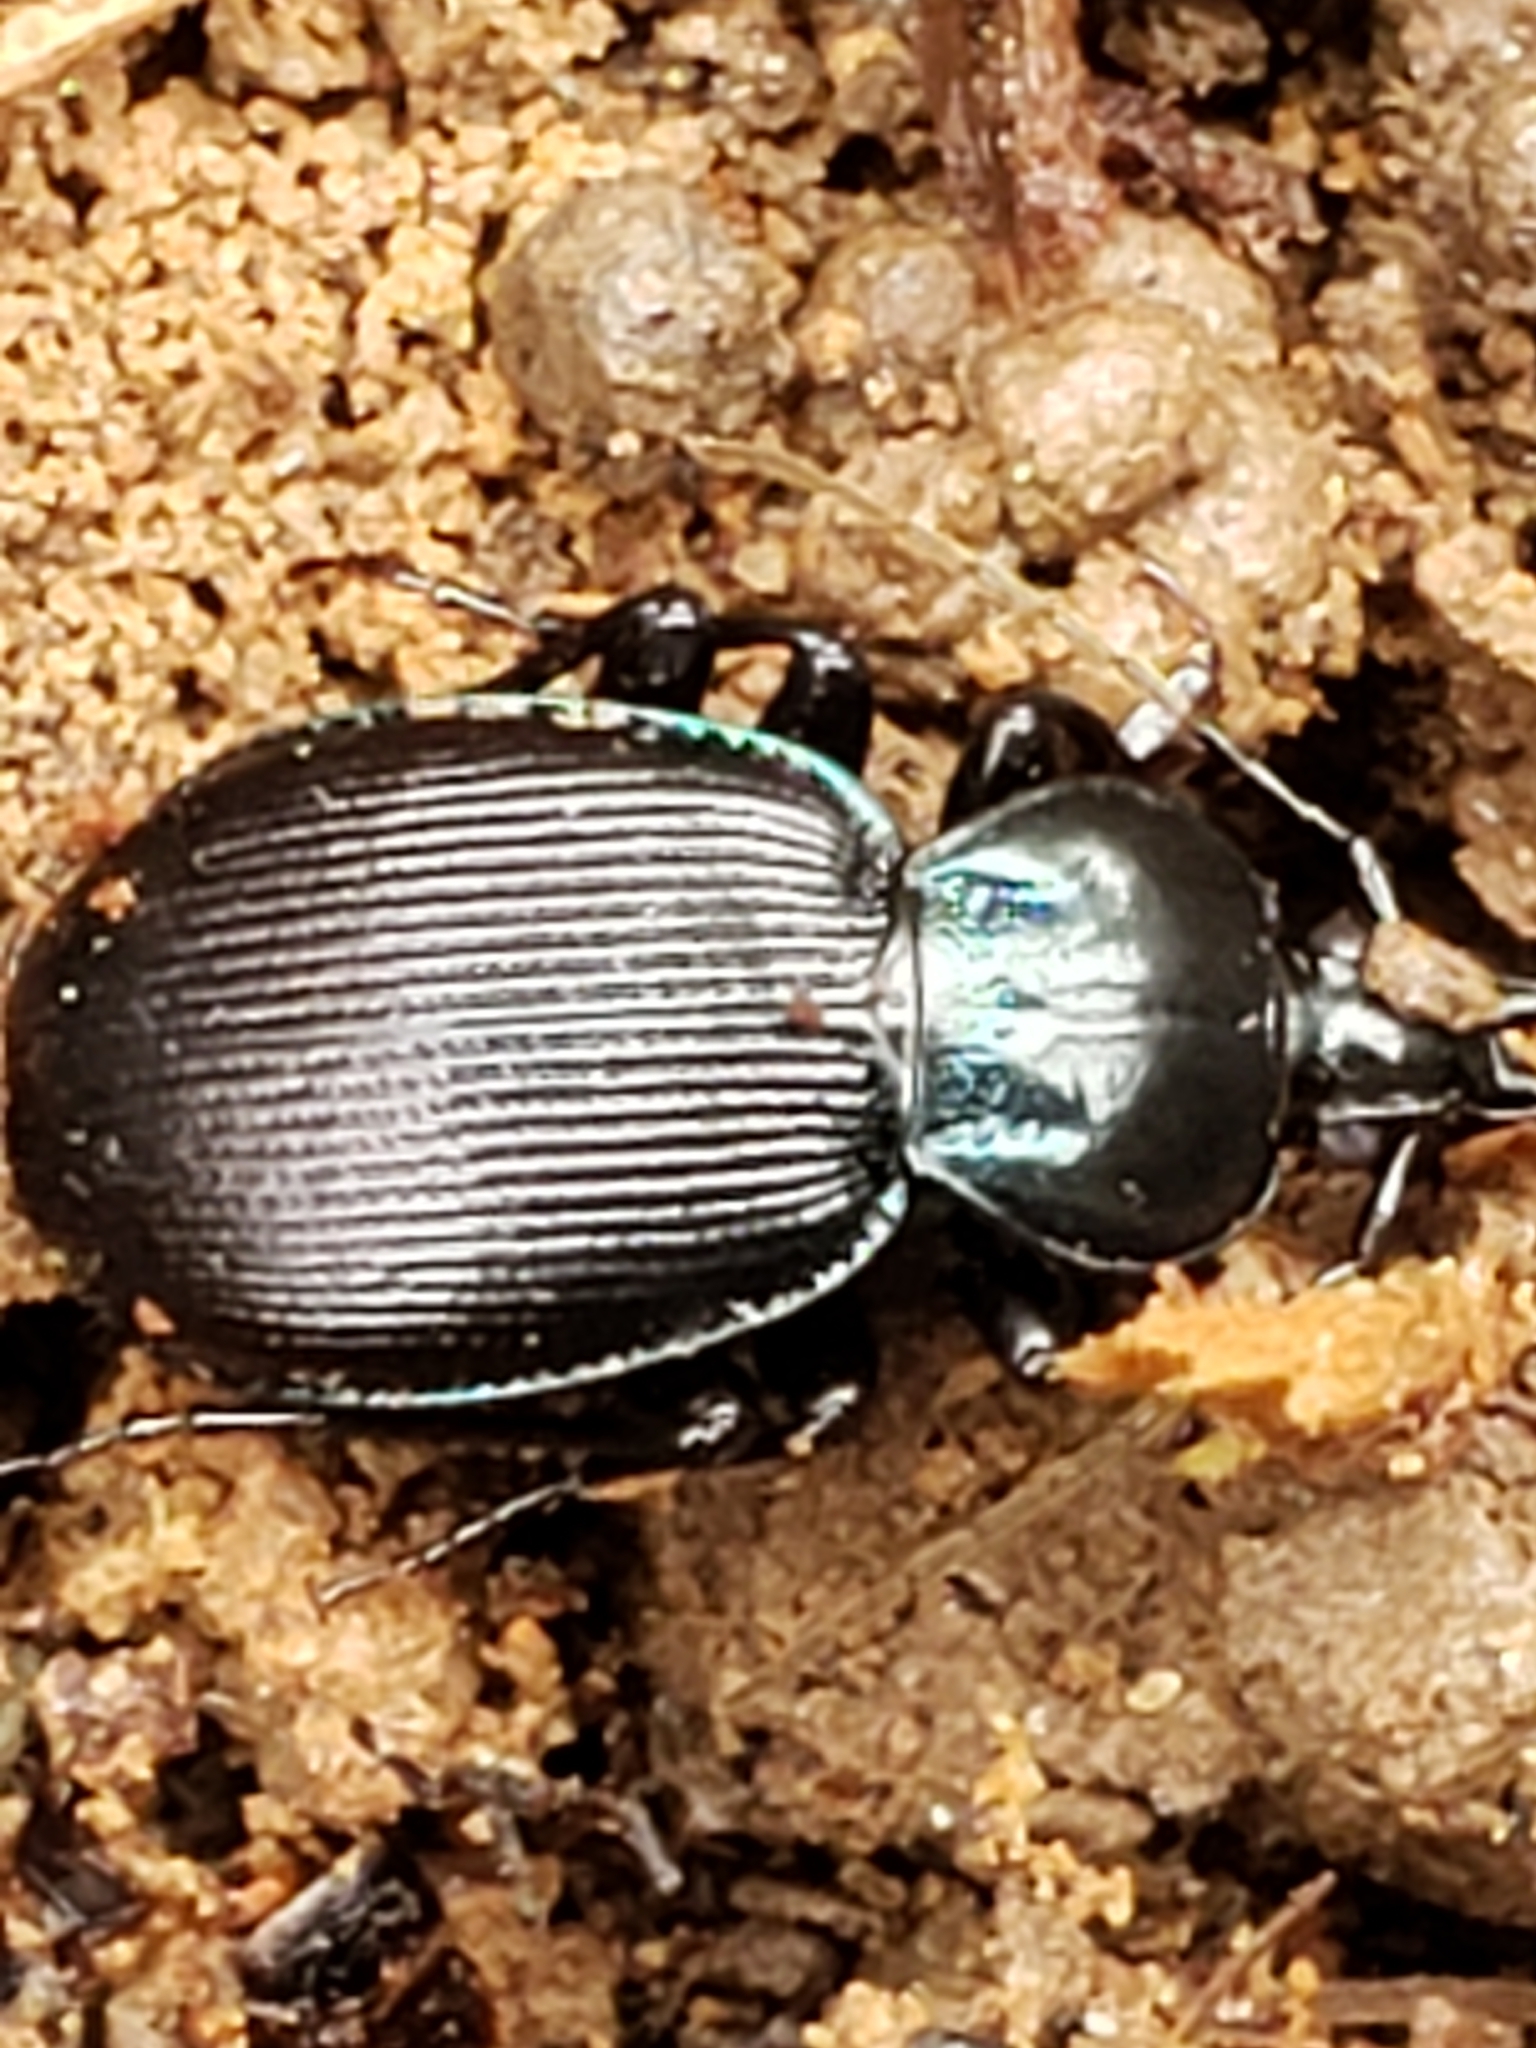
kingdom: Animalia
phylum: Arthropoda
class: Insecta
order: Coleoptera
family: Carabidae
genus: Sphaeroderus
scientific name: Sphaeroderus stenostomus
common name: Small snail-eating ground beetle
